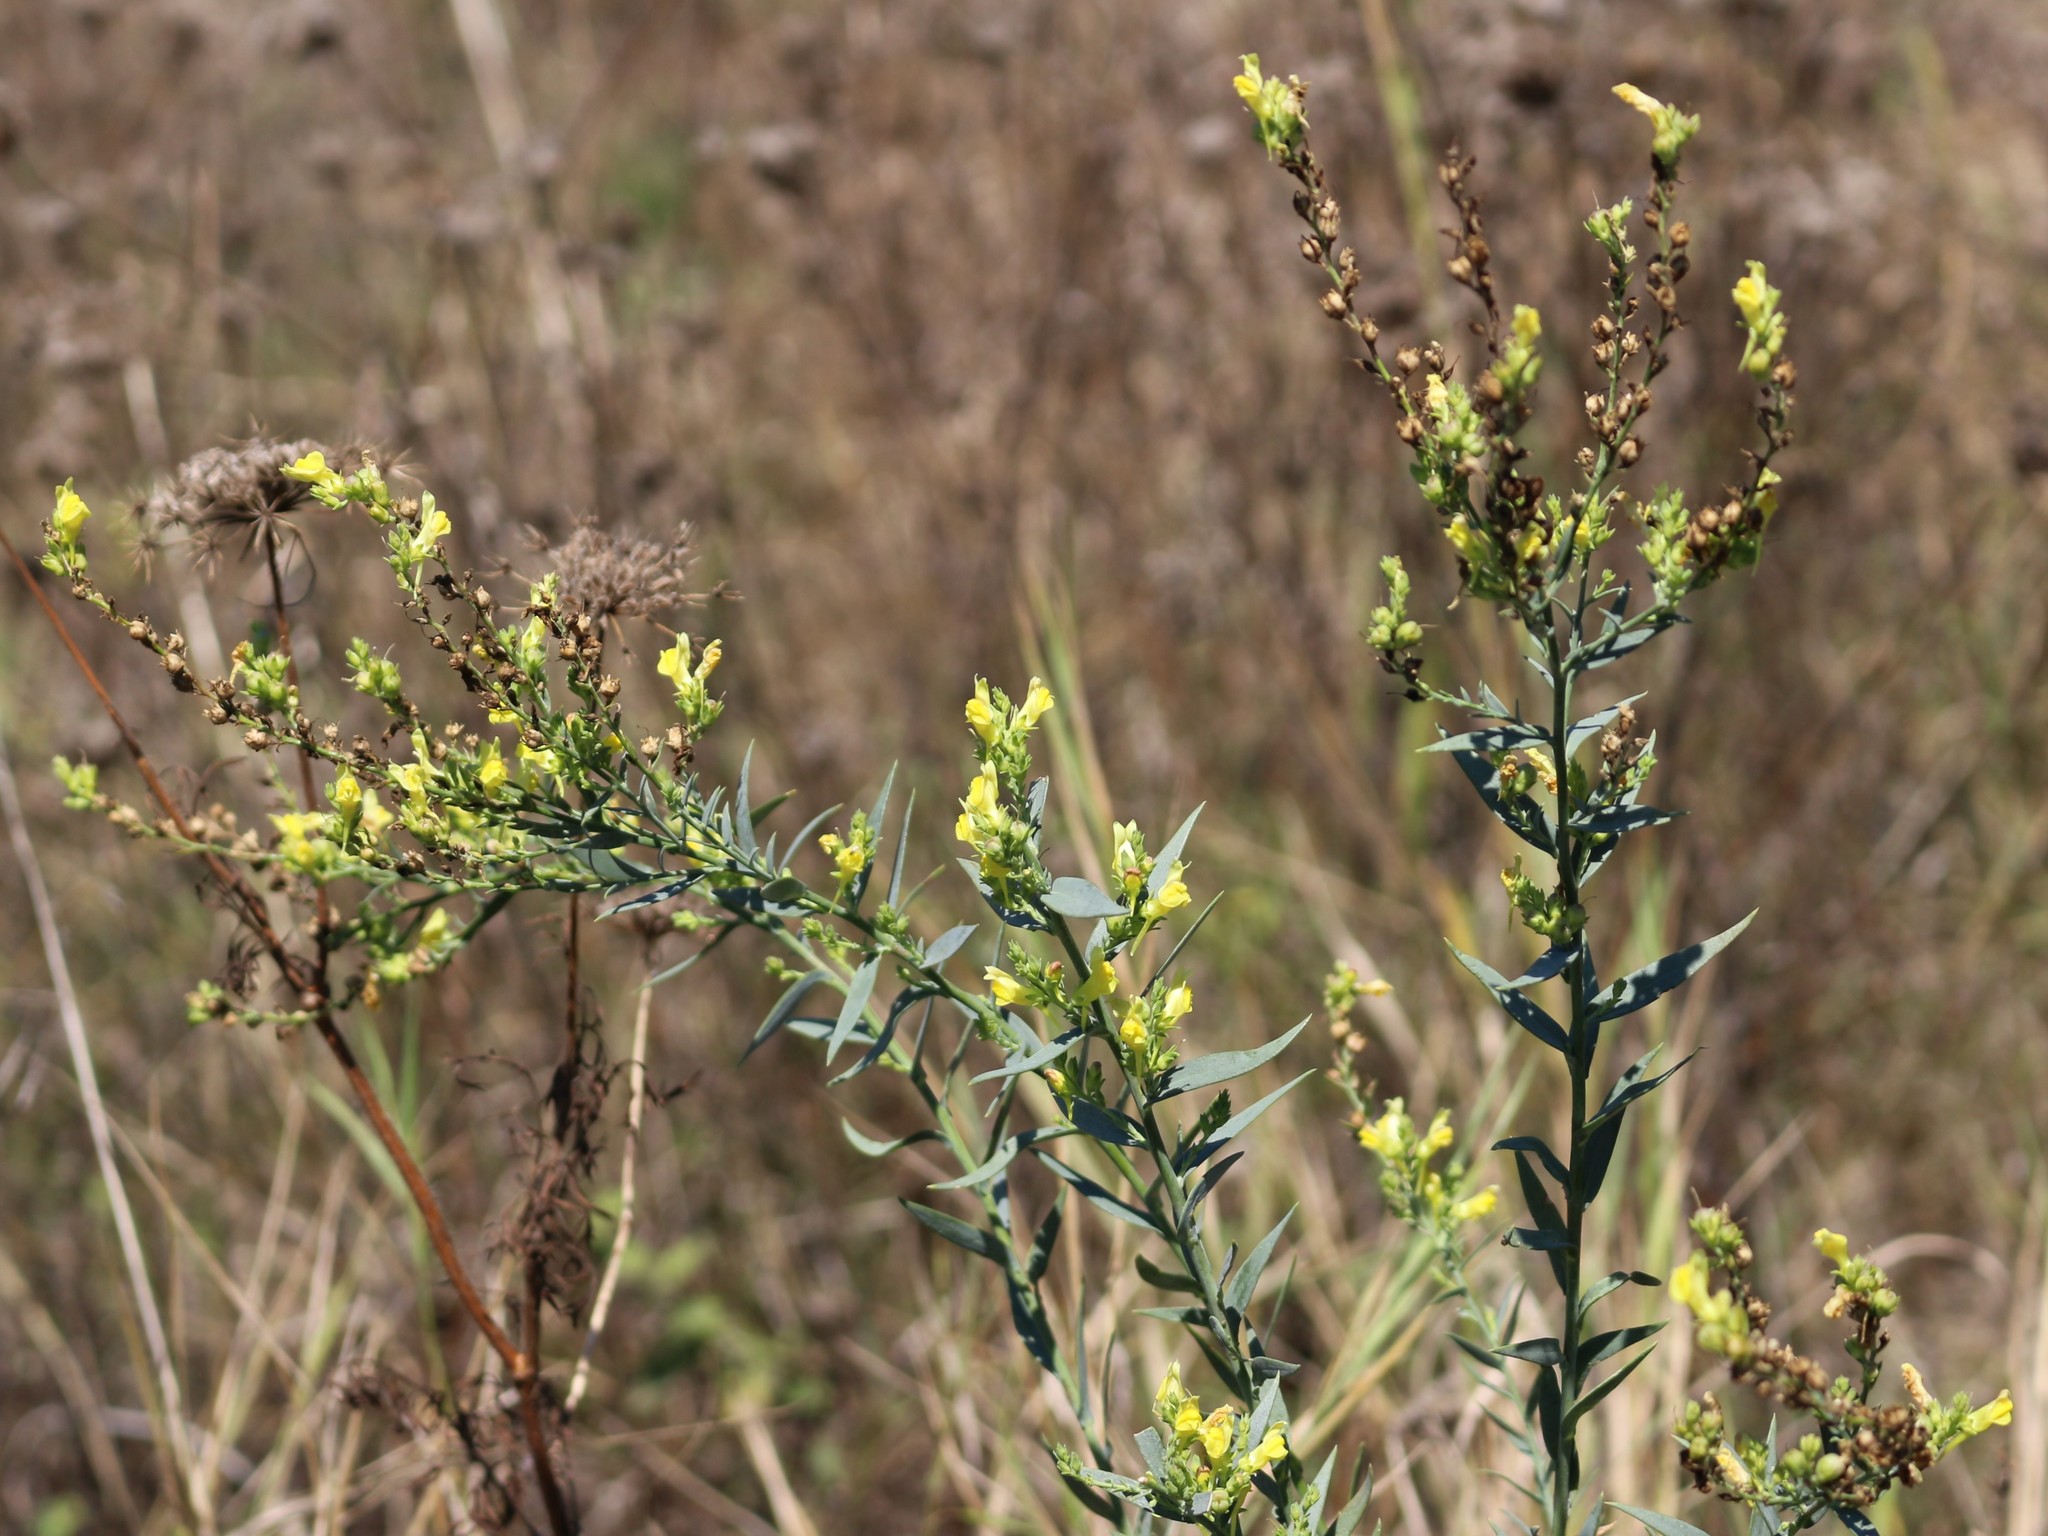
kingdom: Plantae
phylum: Tracheophyta
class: Magnoliopsida
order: Lamiales
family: Plantaginaceae
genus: Linaria
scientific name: Linaria genistifolia
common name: Broomleaf toadflax
